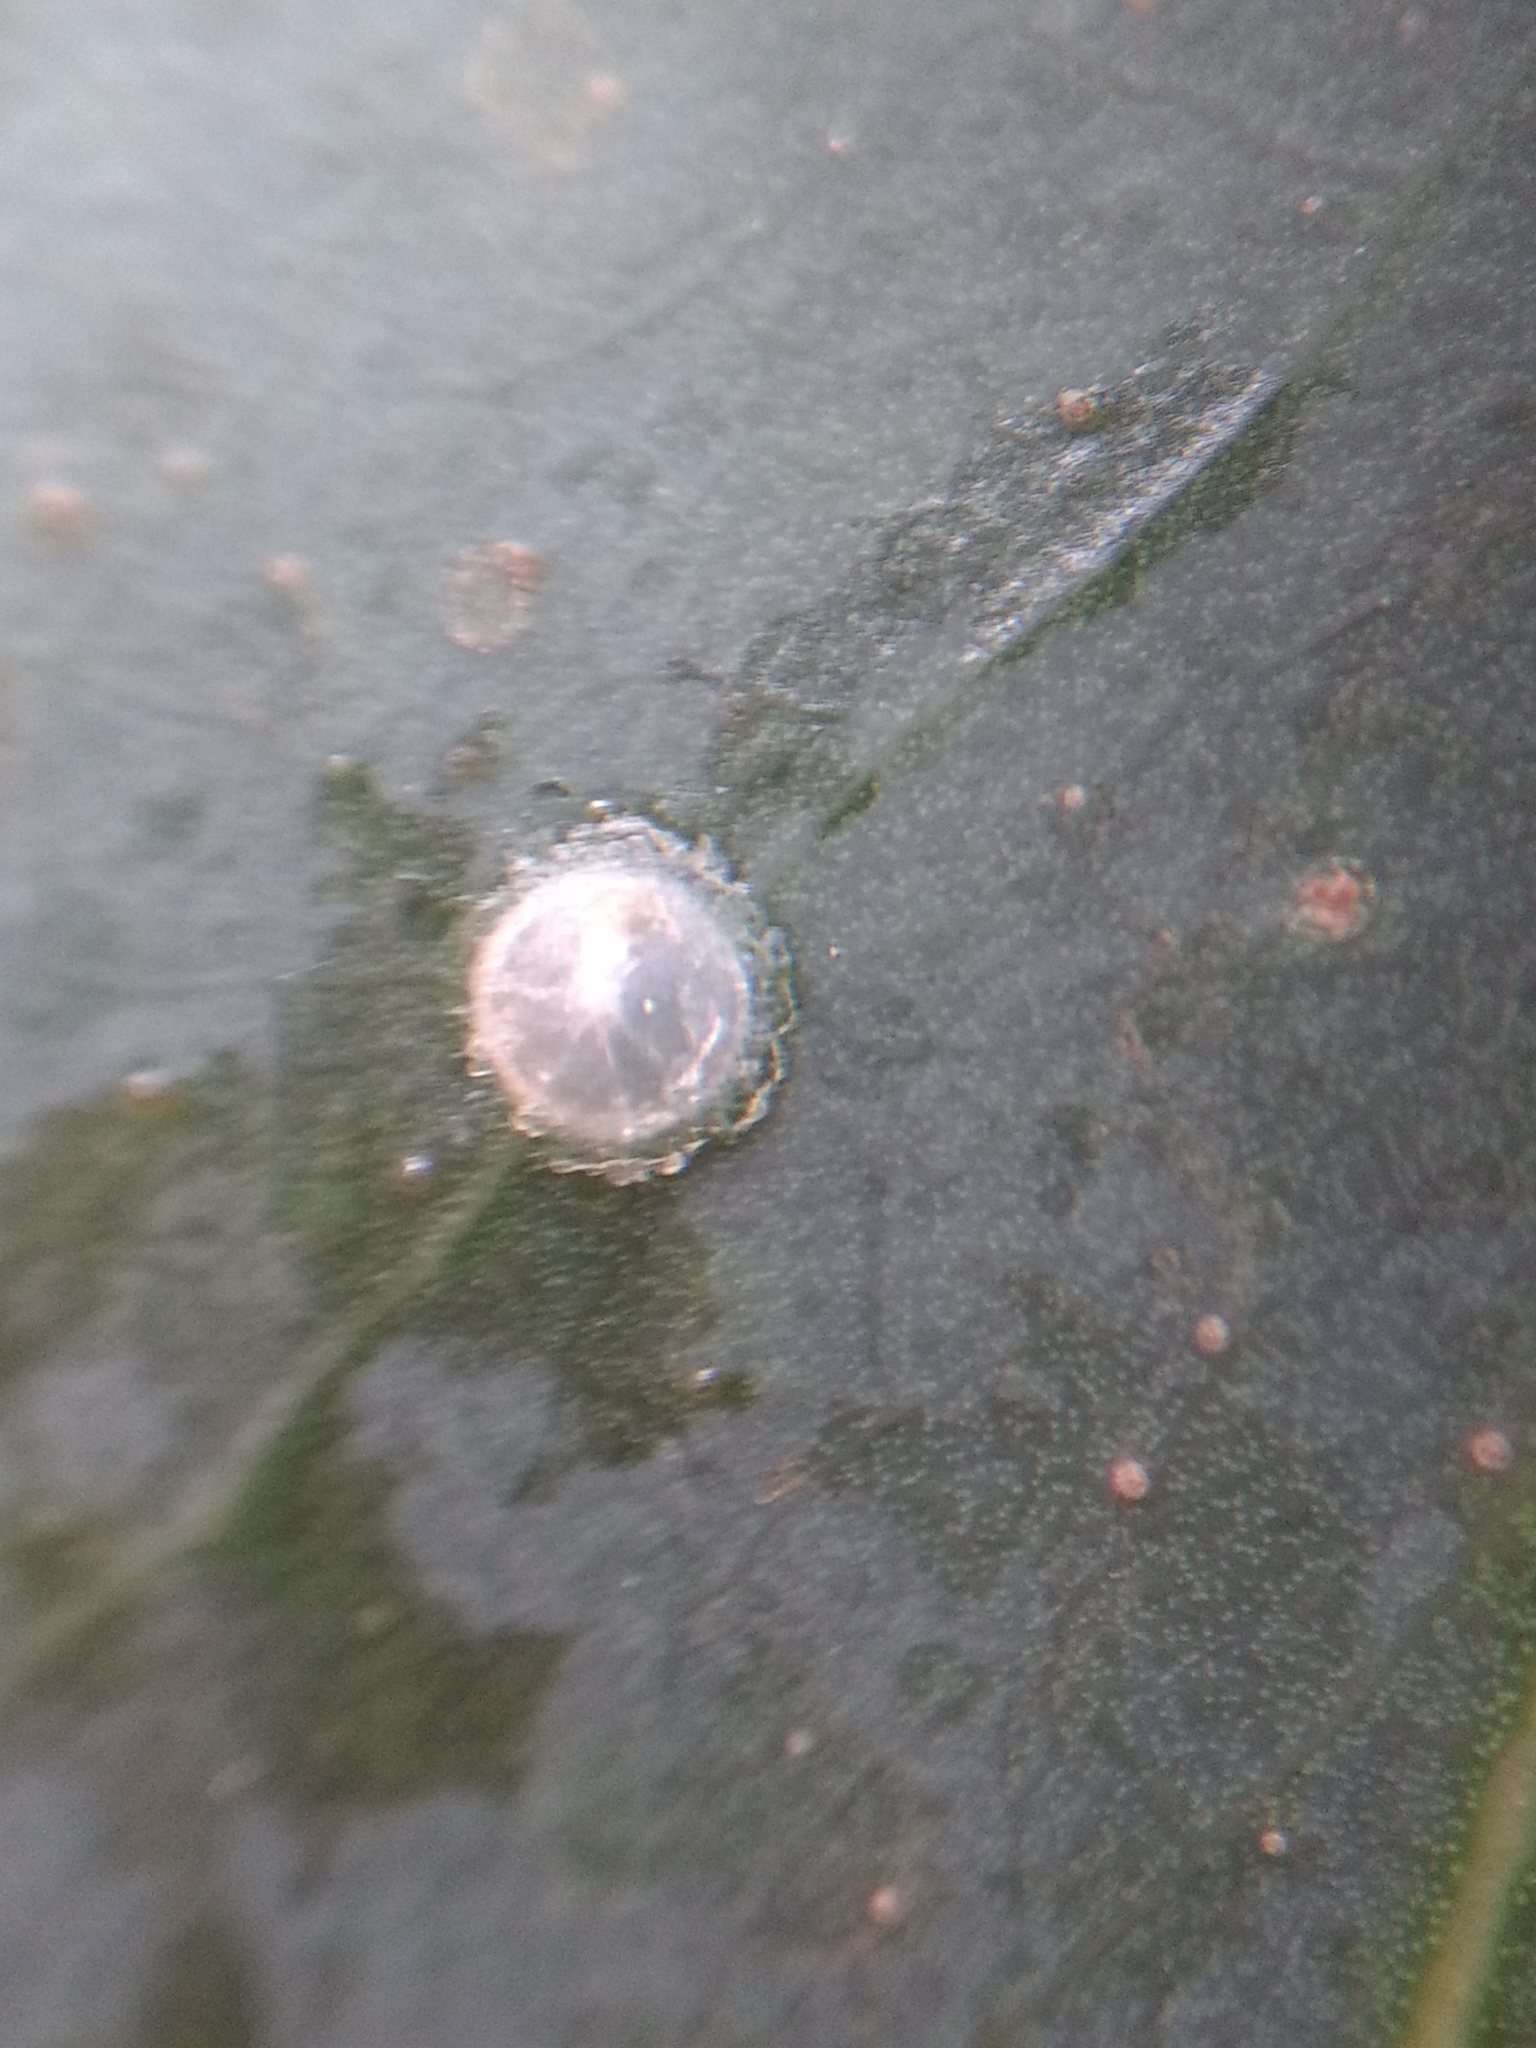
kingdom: Animalia
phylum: Arthropoda
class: Insecta
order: Hemiptera
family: Aphalaridae
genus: Glycaspis
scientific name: Glycaspis brimblecombei
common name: Red gum lerp psyllid
